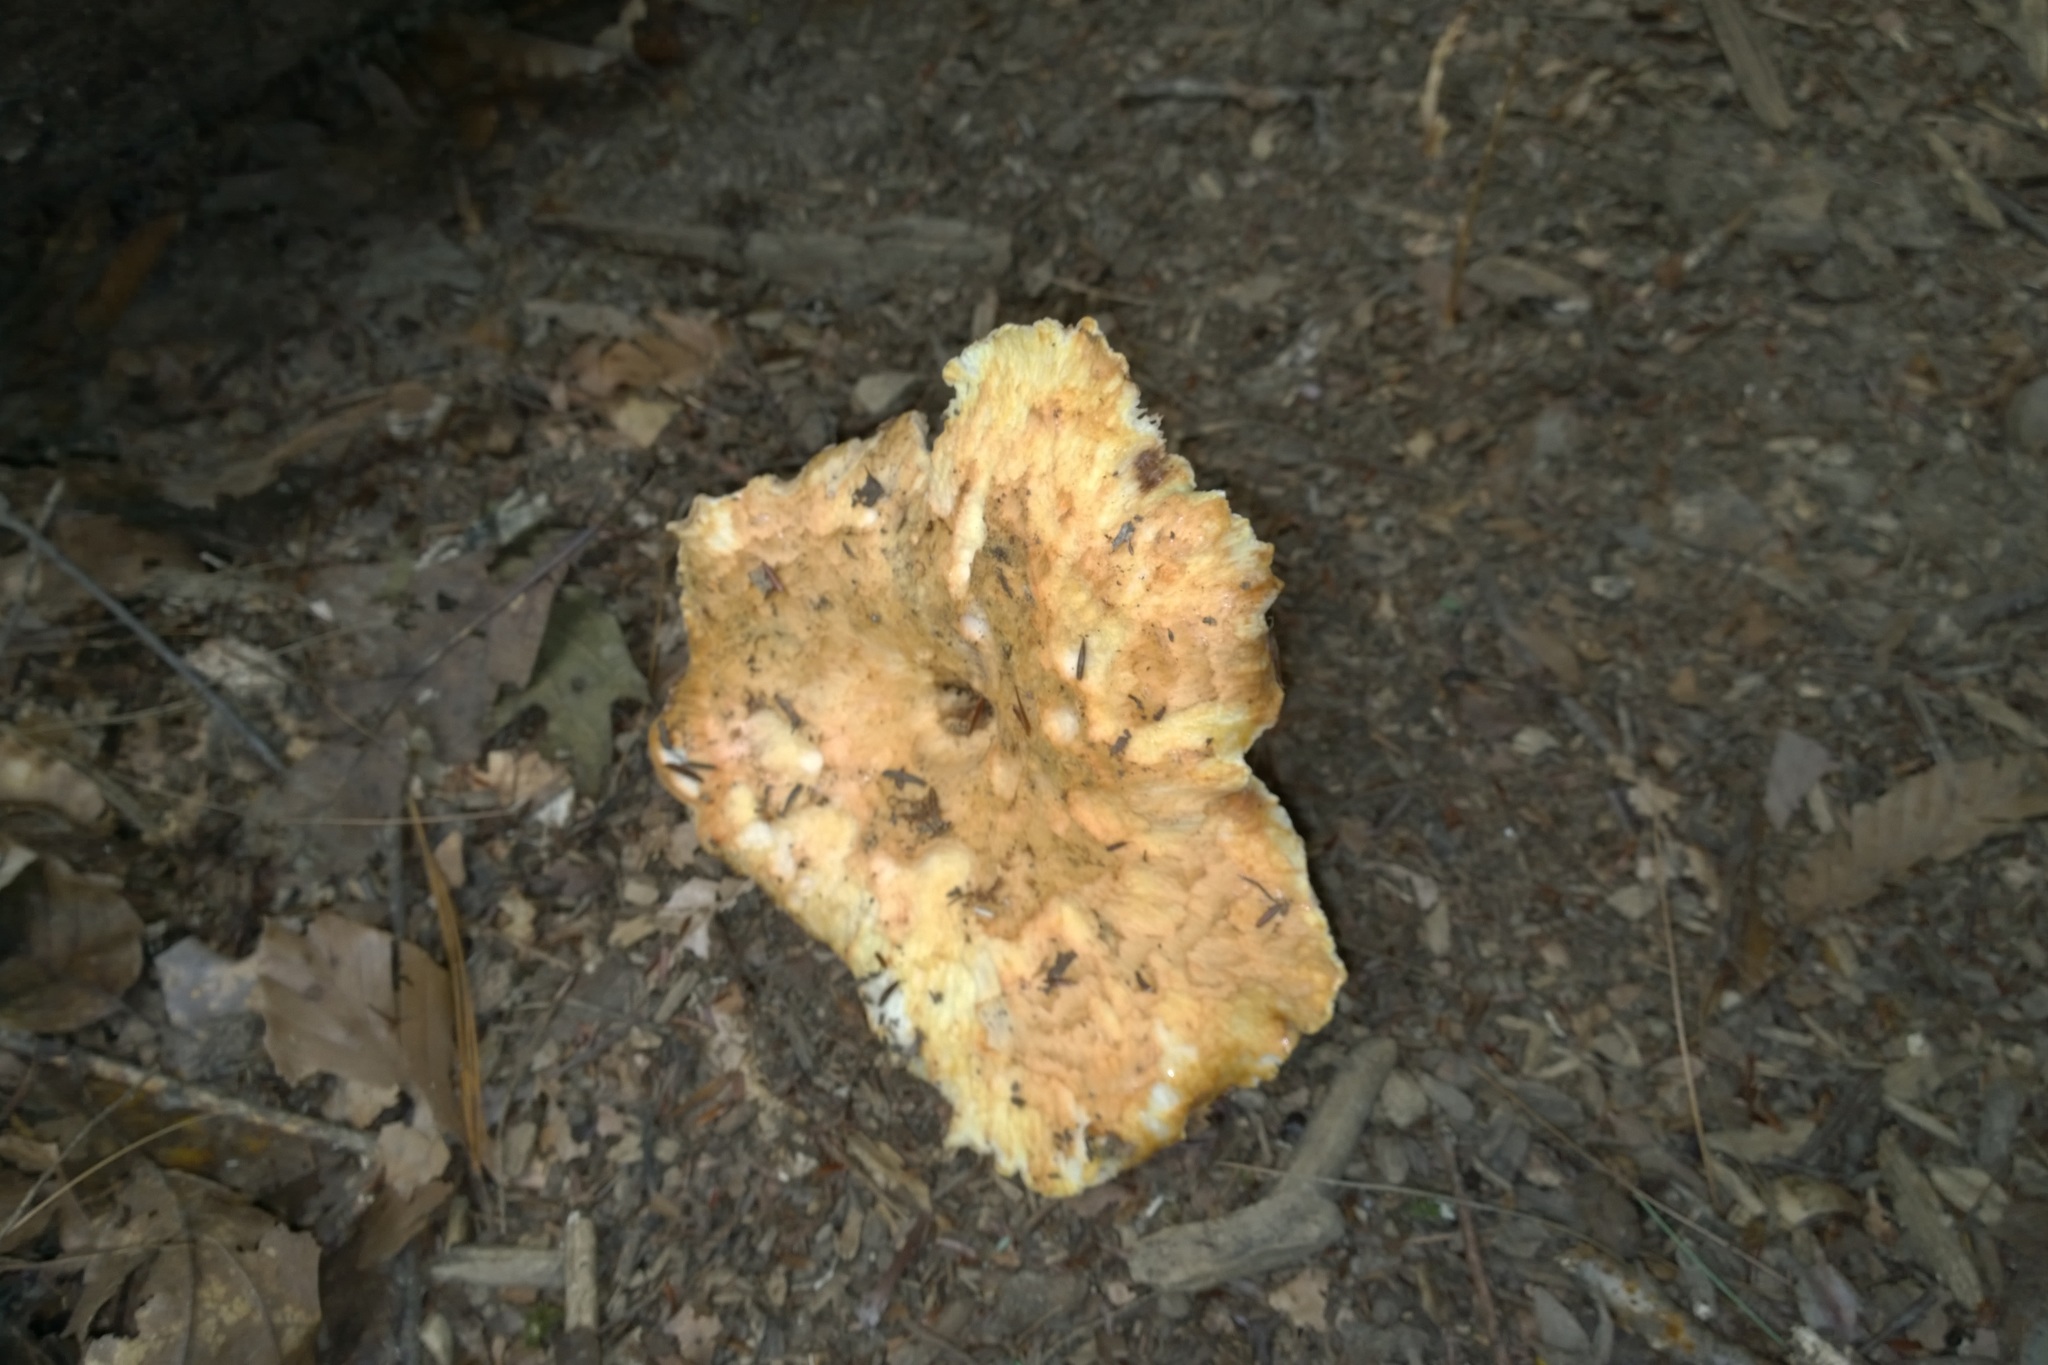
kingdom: Fungi
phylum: Basidiomycota
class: Agaricomycetes
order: Gomphales
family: Gomphaceae
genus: Turbinellus
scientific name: Turbinellus floccosus
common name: Scaly chanterelle
